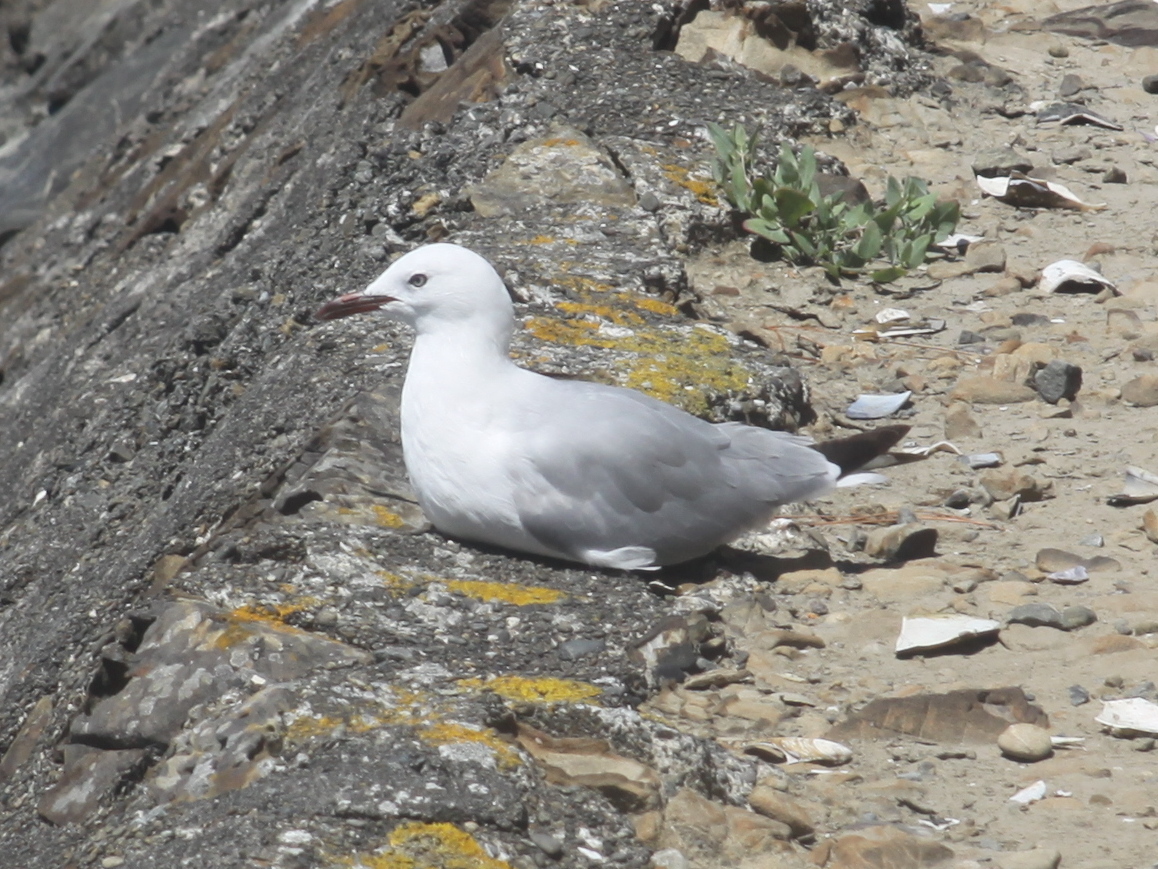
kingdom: Animalia
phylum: Chordata
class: Aves
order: Charadriiformes
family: Laridae
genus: Chroicocephalus
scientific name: Chroicocephalus novaehollandiae
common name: Silver gull
